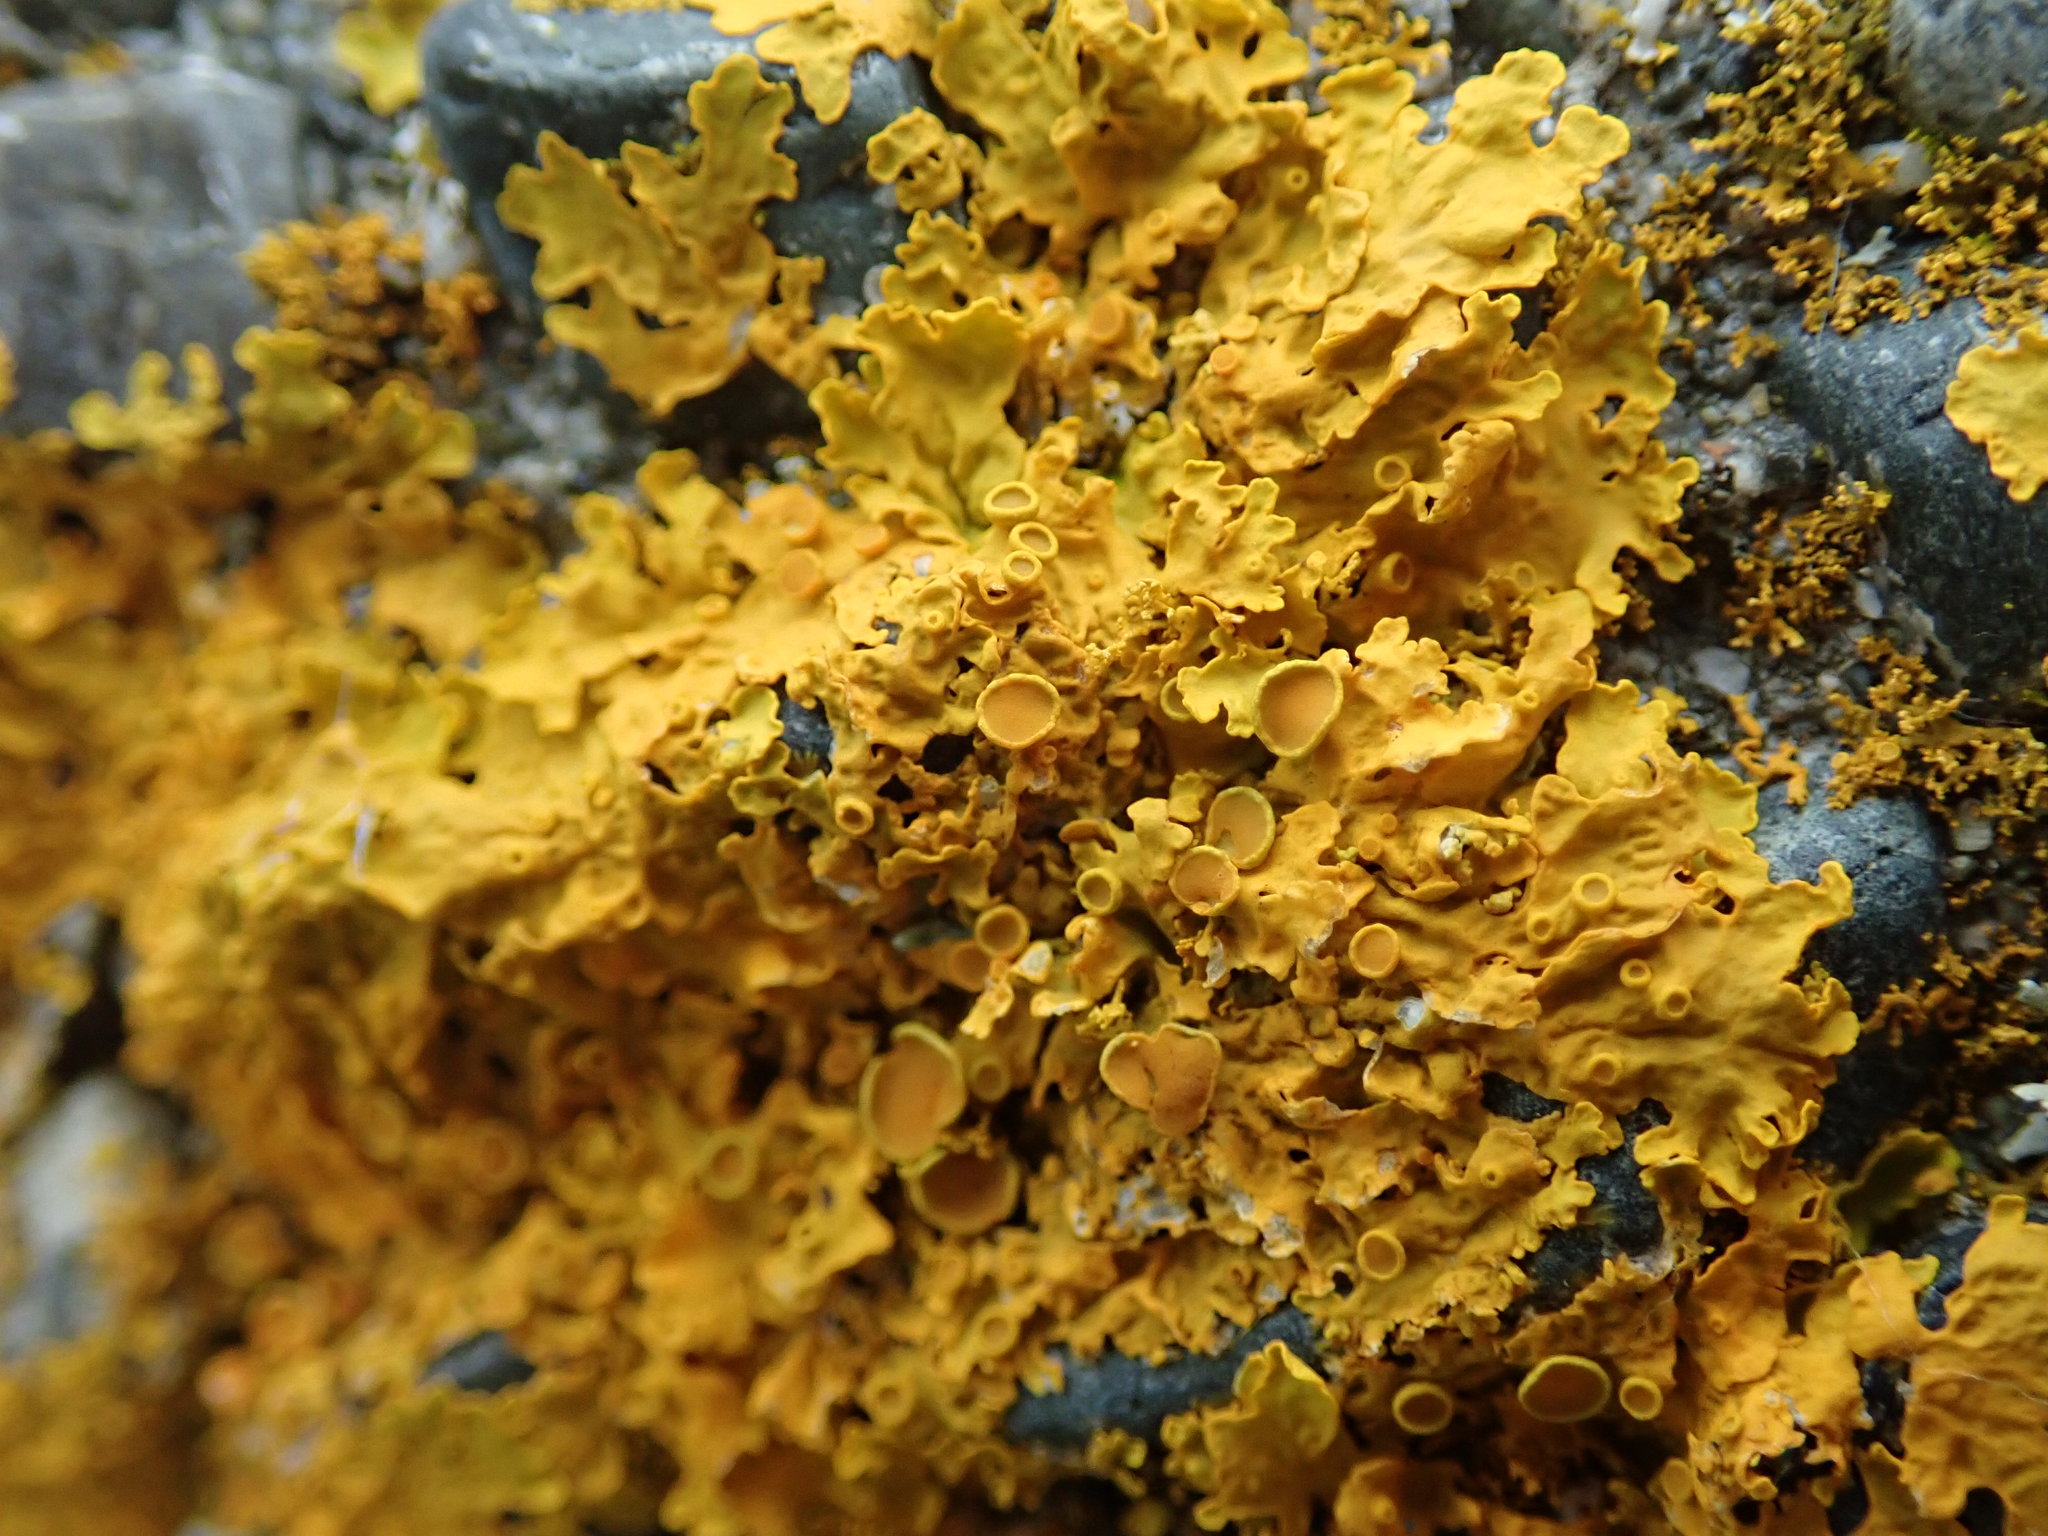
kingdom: Fungi
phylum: Ascomycota
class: Lecanoromycetes
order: Teloschistales
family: Teloschistaceae
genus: Xanthoria
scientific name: Xanthoria parietina
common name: Common orange lichen
